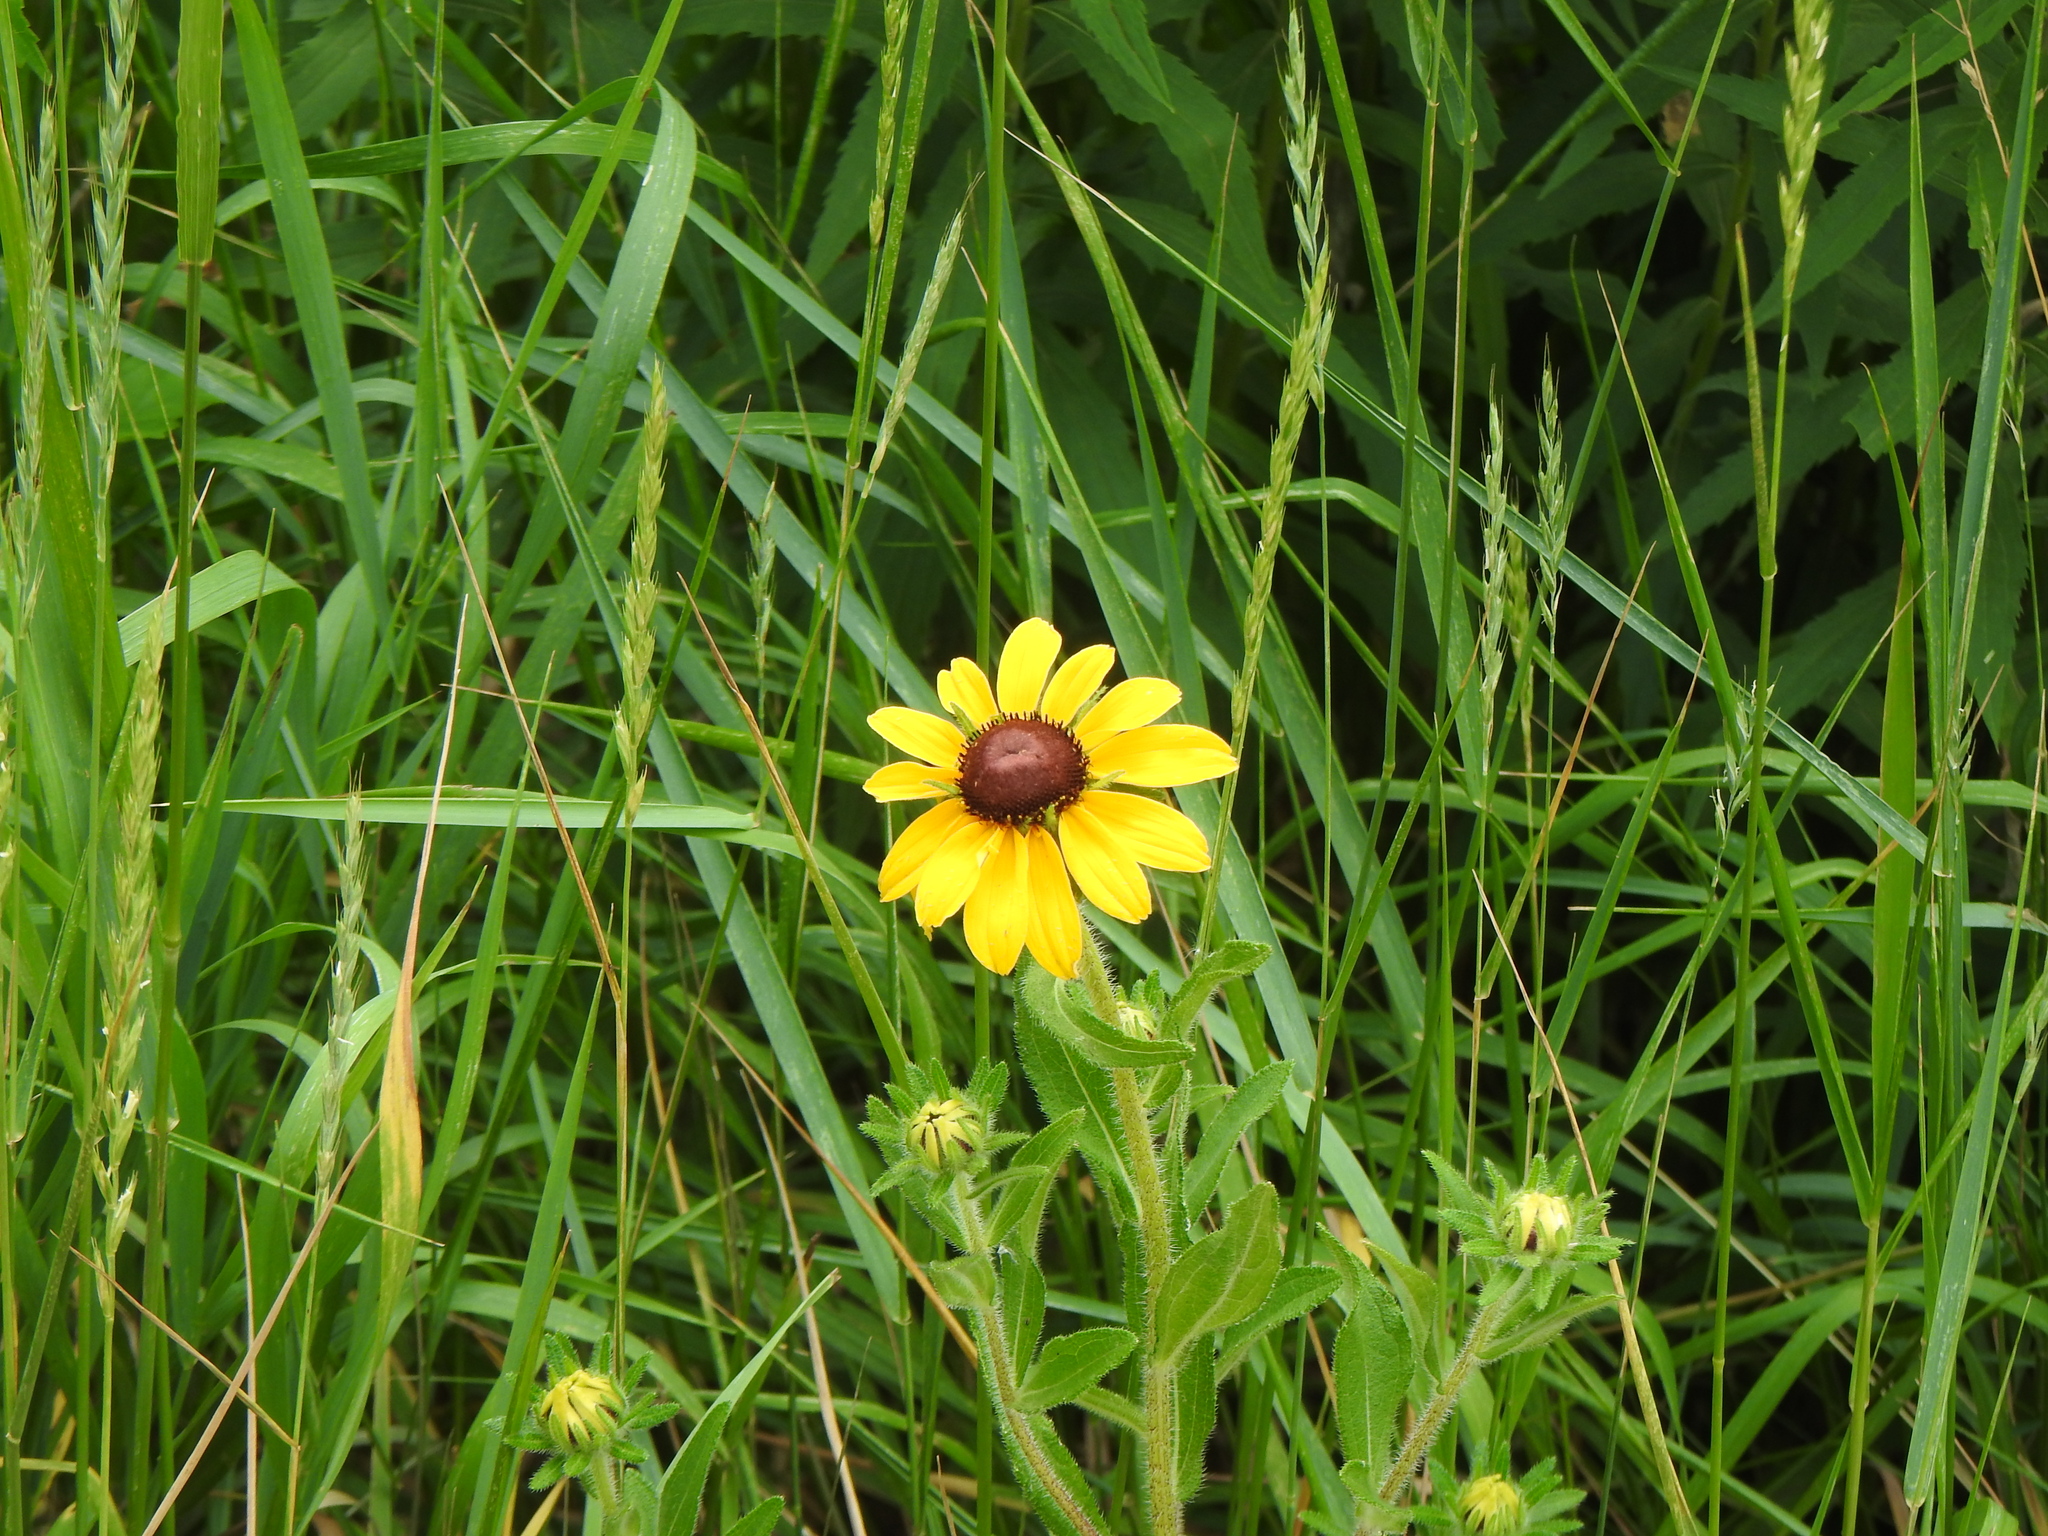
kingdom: Plantae
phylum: Tracheophyta
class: Magnoliopsida
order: Asterales
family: Asteraceae
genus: Rudbeckia
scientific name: Rudbeckia hirta
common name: Black-eyed-susan
